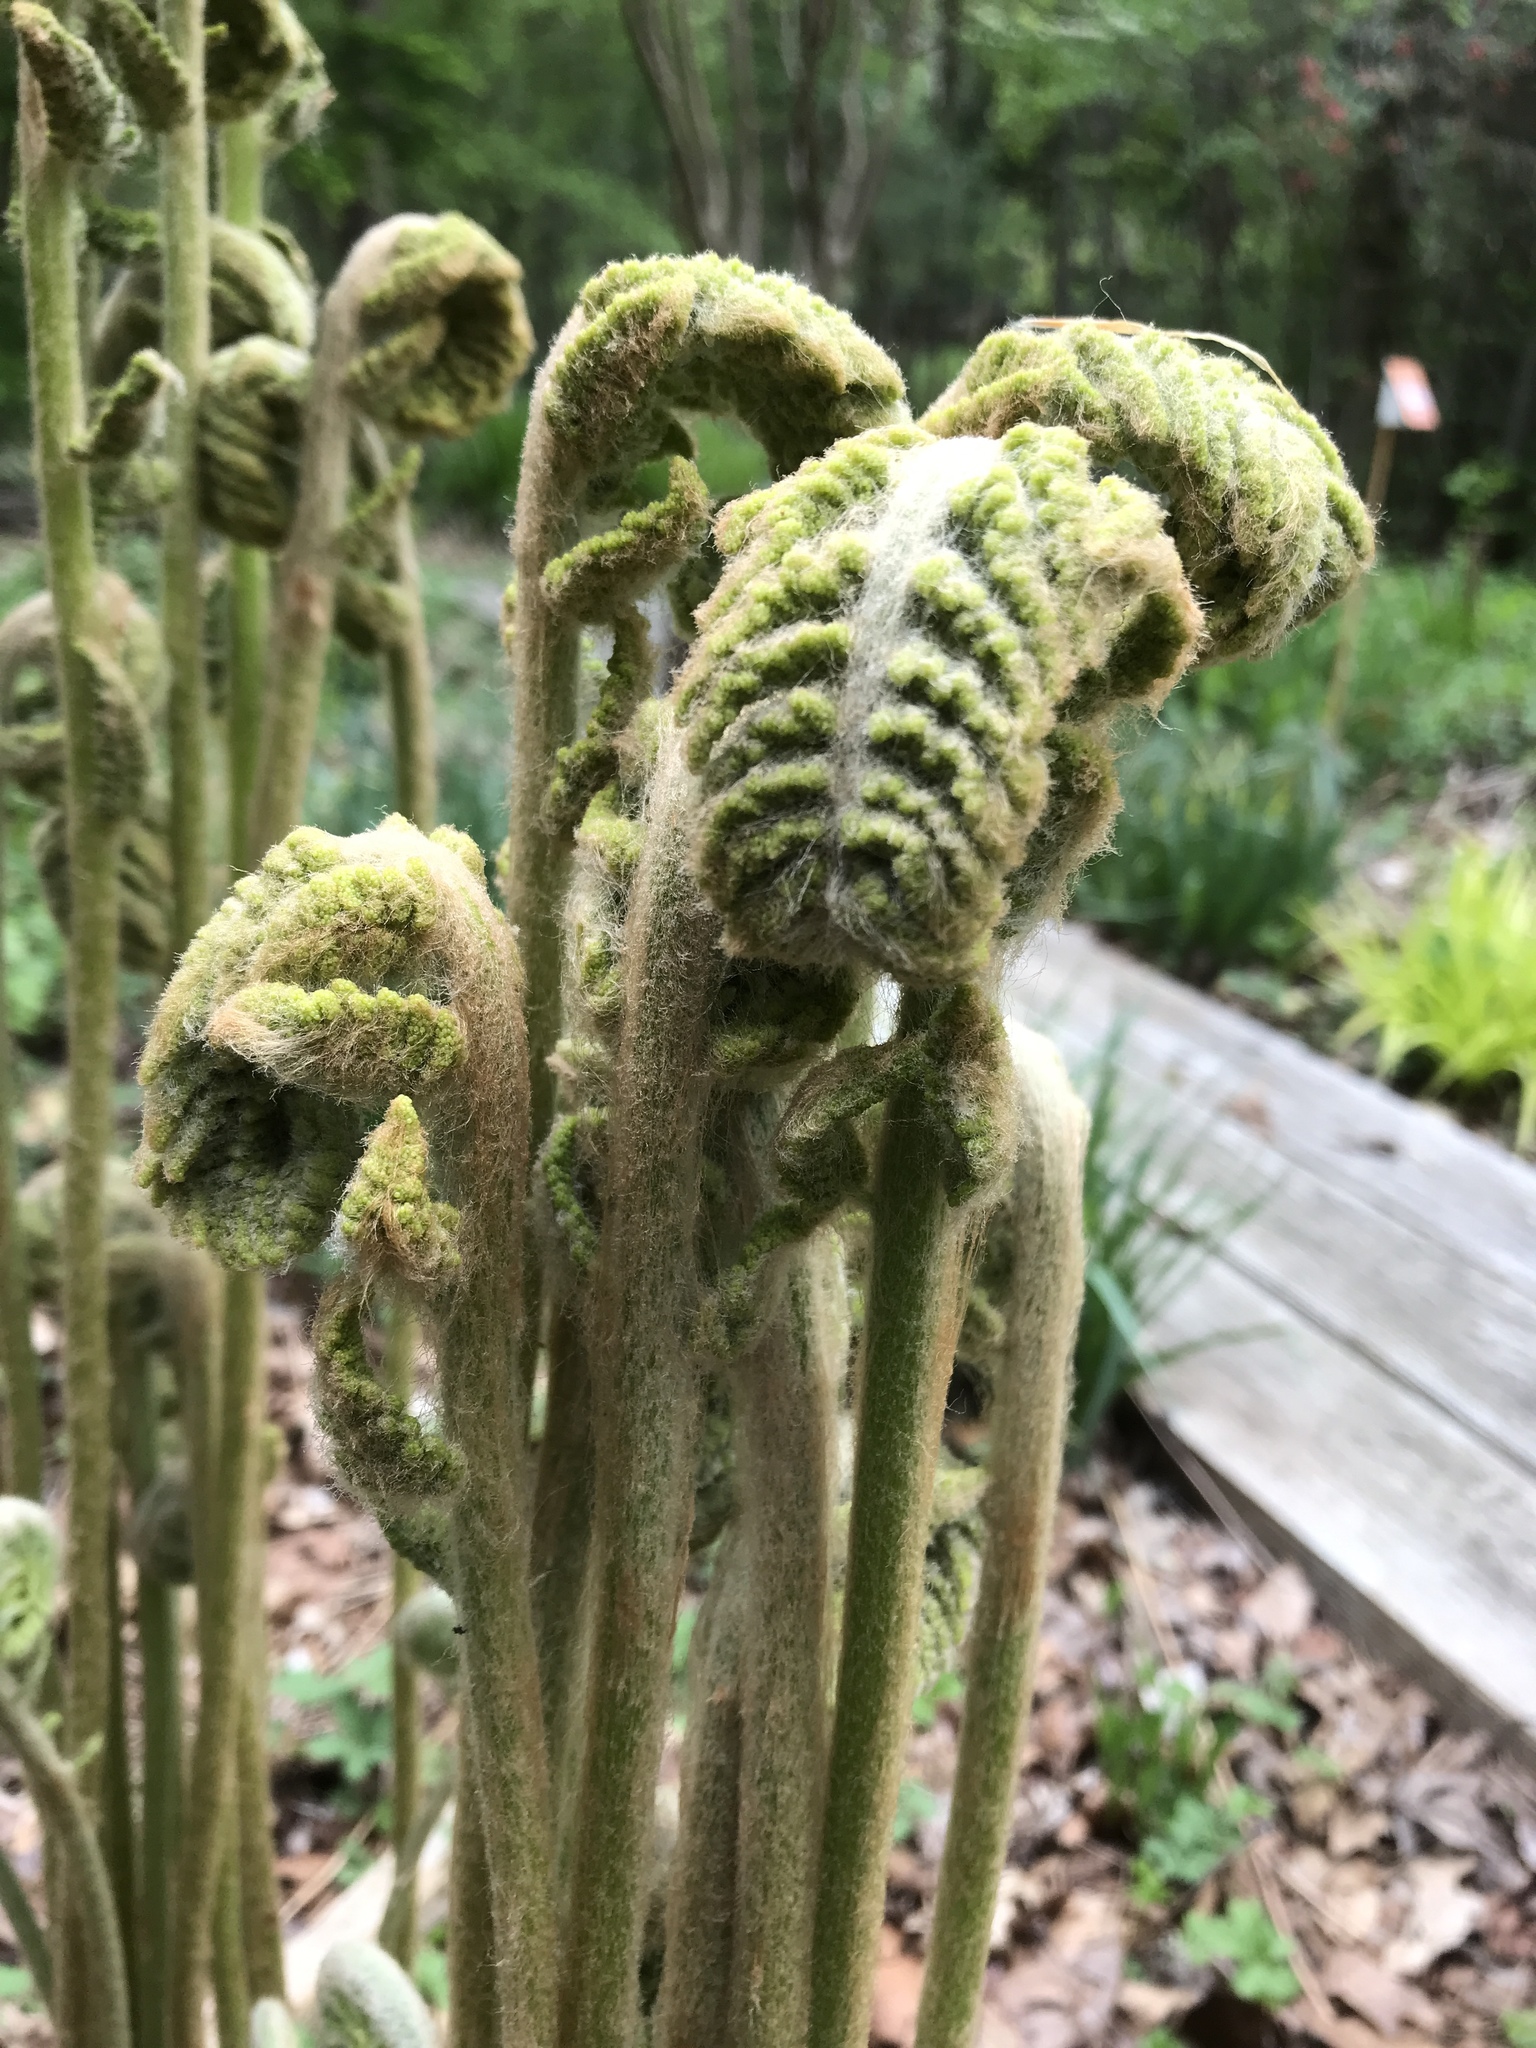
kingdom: Plantae
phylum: Tracheophyta
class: Polypodiopsida
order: Osmundales
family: Osmundaceae
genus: Osmundastrum
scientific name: Osmundastrum cinnamomeum
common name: Cinnamon fern
